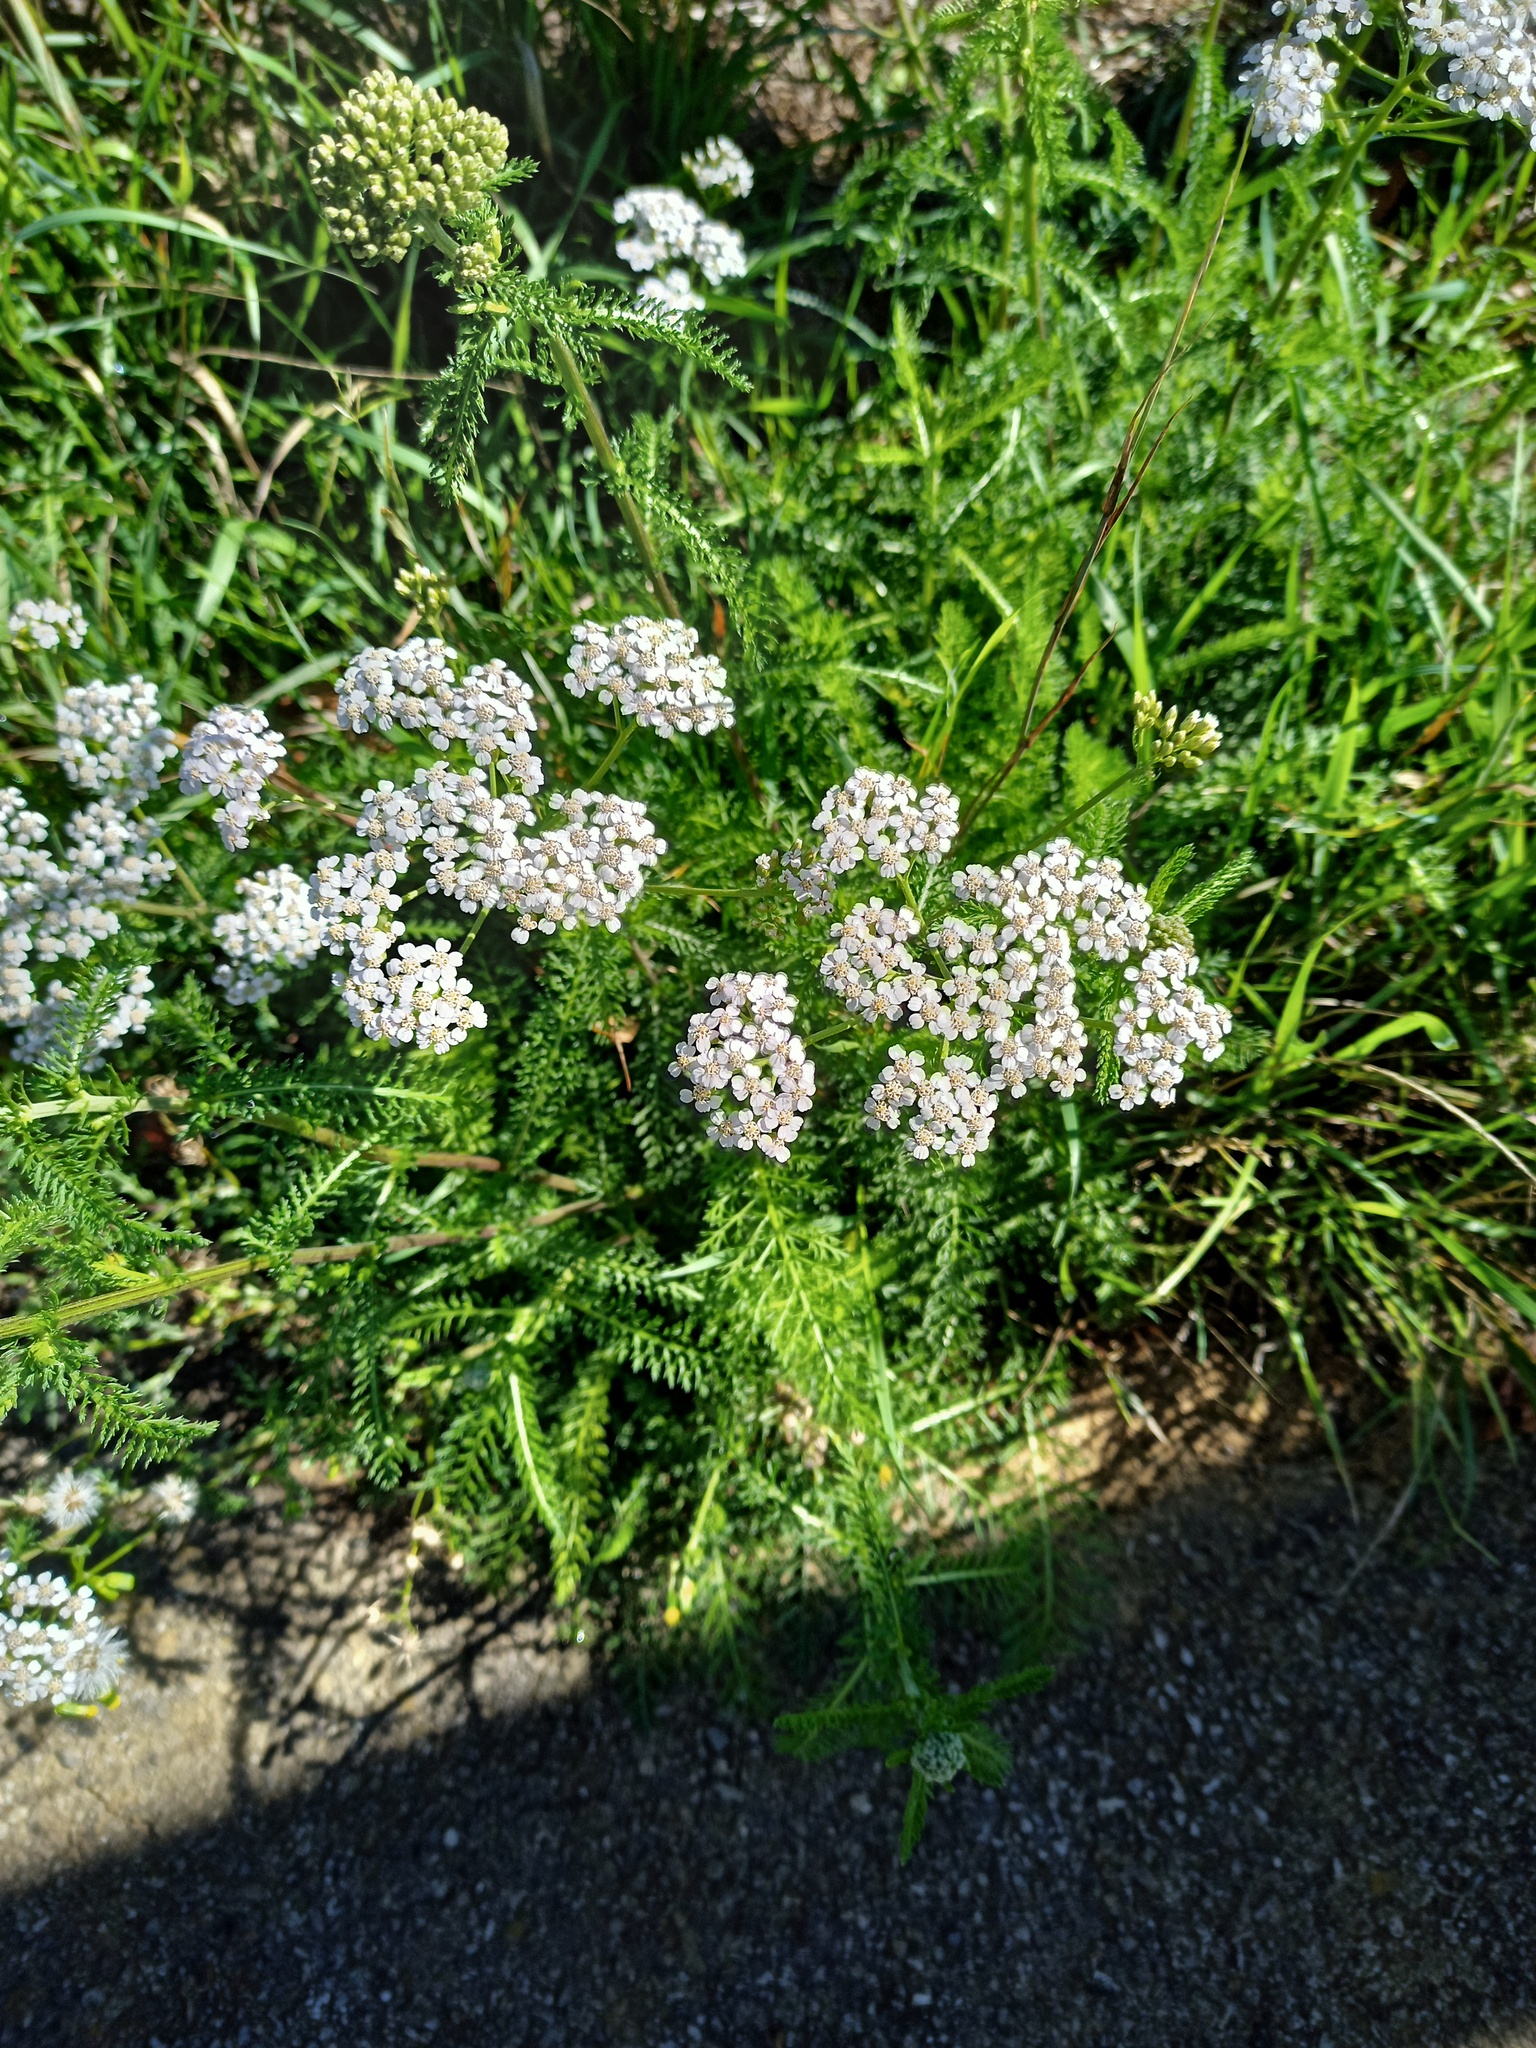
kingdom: Plantae
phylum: Tracheophyta
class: Magnoliopsida
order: Asterales
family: Asteraceae
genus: Achillea
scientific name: Achillea millefolium
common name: Yarrow
